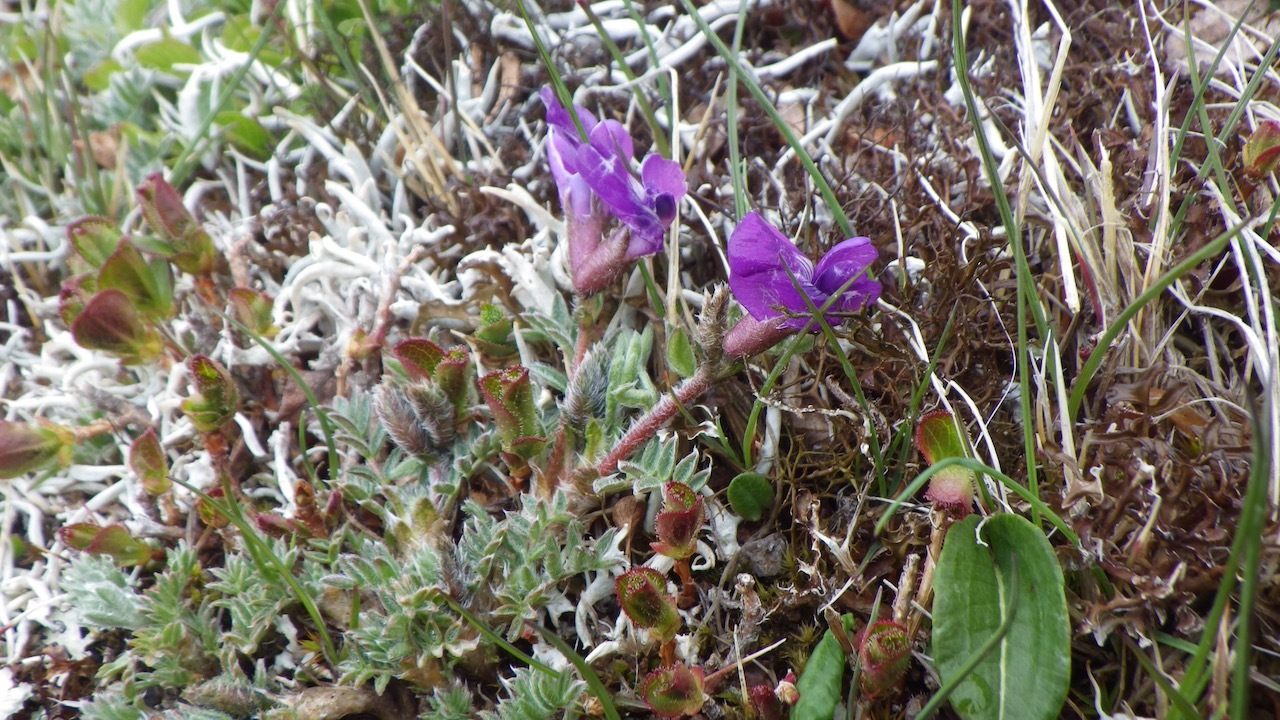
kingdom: Plantae
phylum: Tracheophyta
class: Magnoliopsida
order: Fabales
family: Fabaceae
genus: Oxytropis
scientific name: Oxytropis japonica
